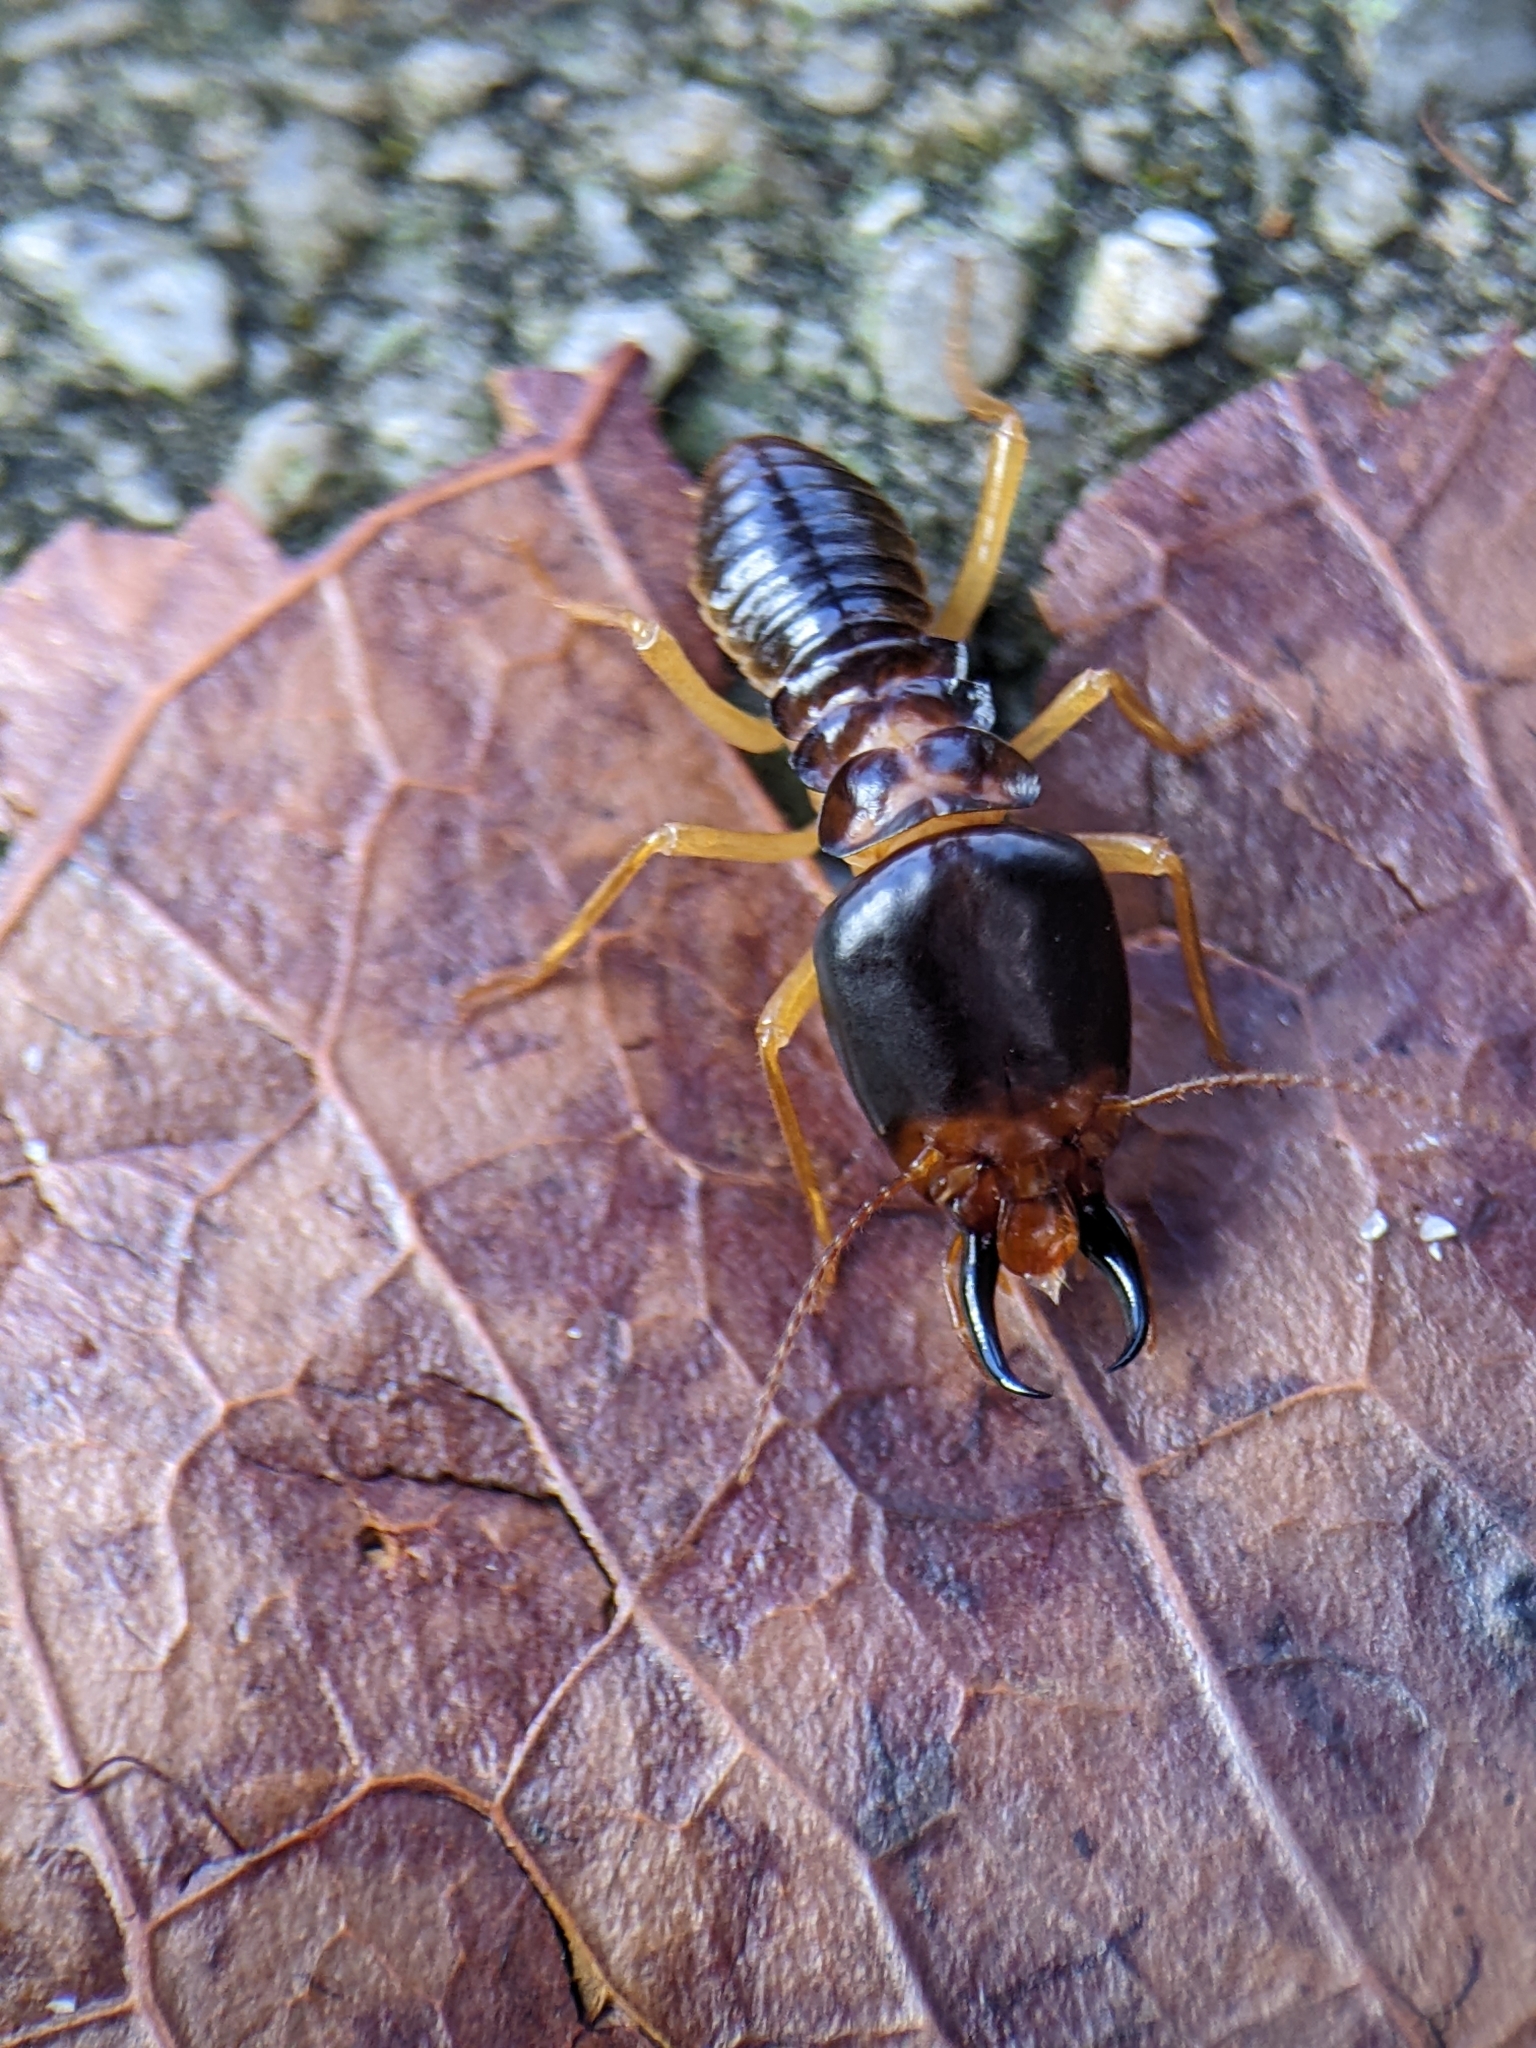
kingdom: Animalia
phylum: Arthropoda
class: Insecta
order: Blattodea
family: Termitidae
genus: Macrotermes
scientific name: Macrotermes carbonarius
